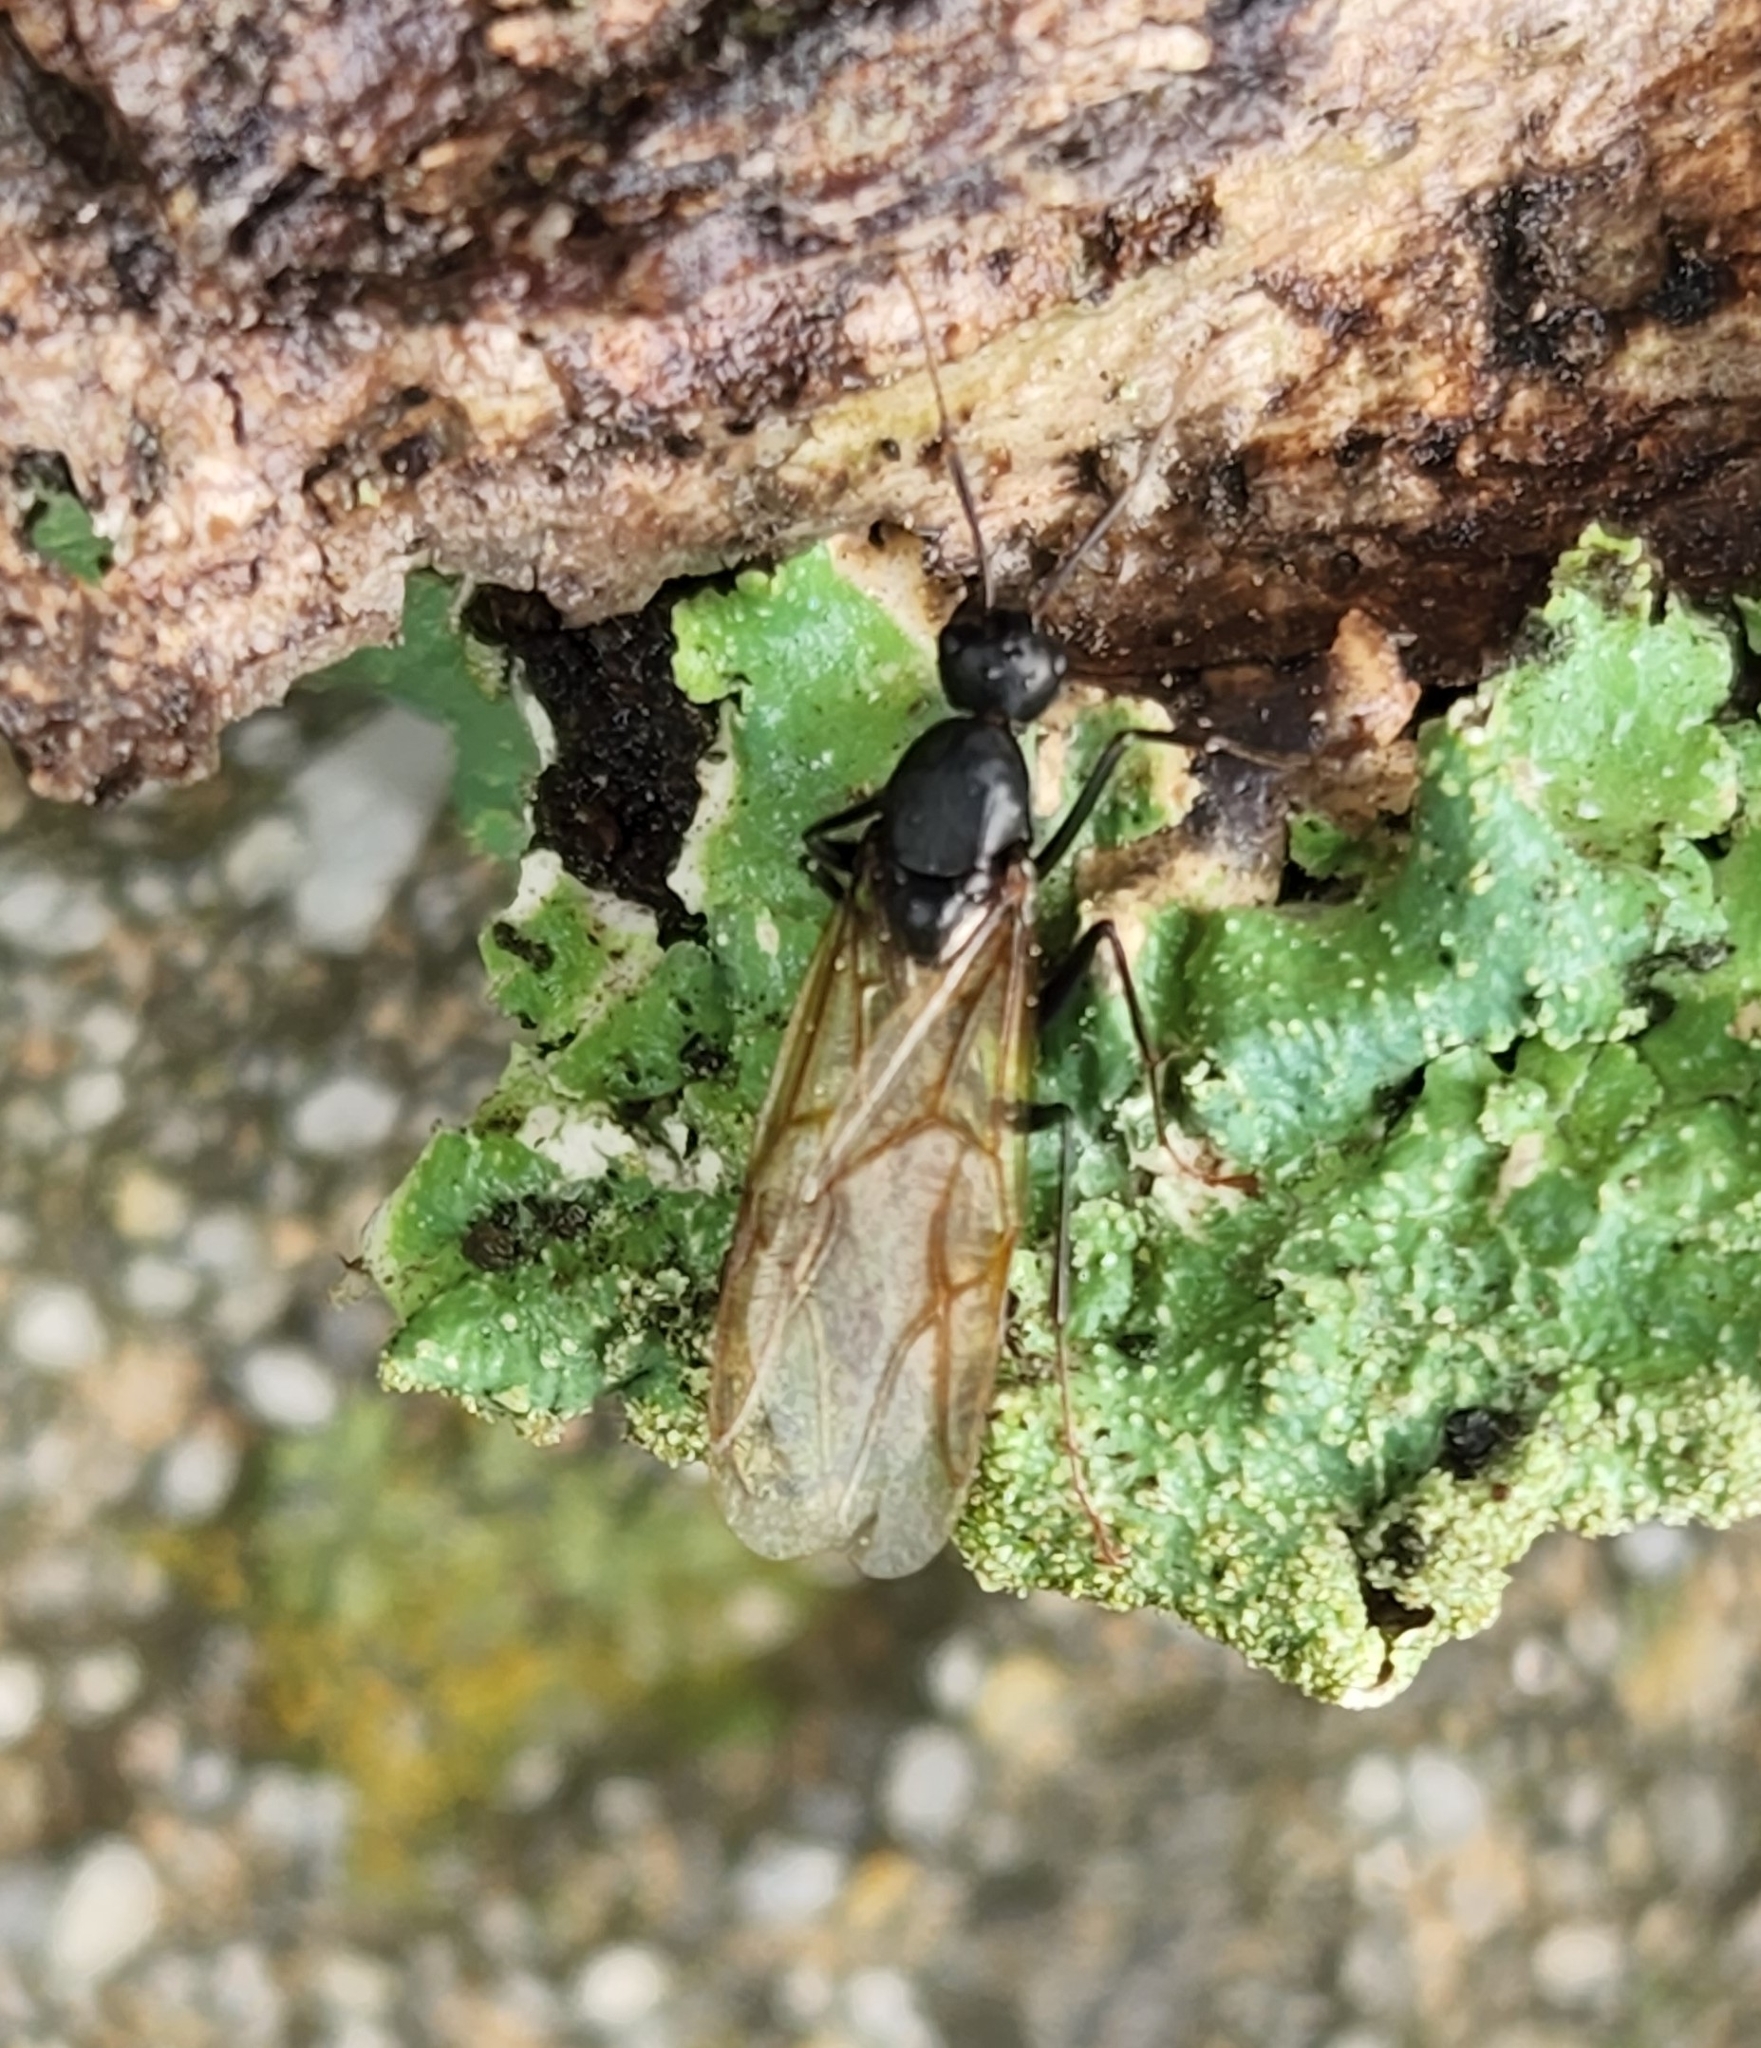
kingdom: Animalia
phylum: Arthropoda
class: Insecta
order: Hymenoptera
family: Formicidae
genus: Camponotus
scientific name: Camponotus pennsylvanicus
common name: Black carpenter ant
